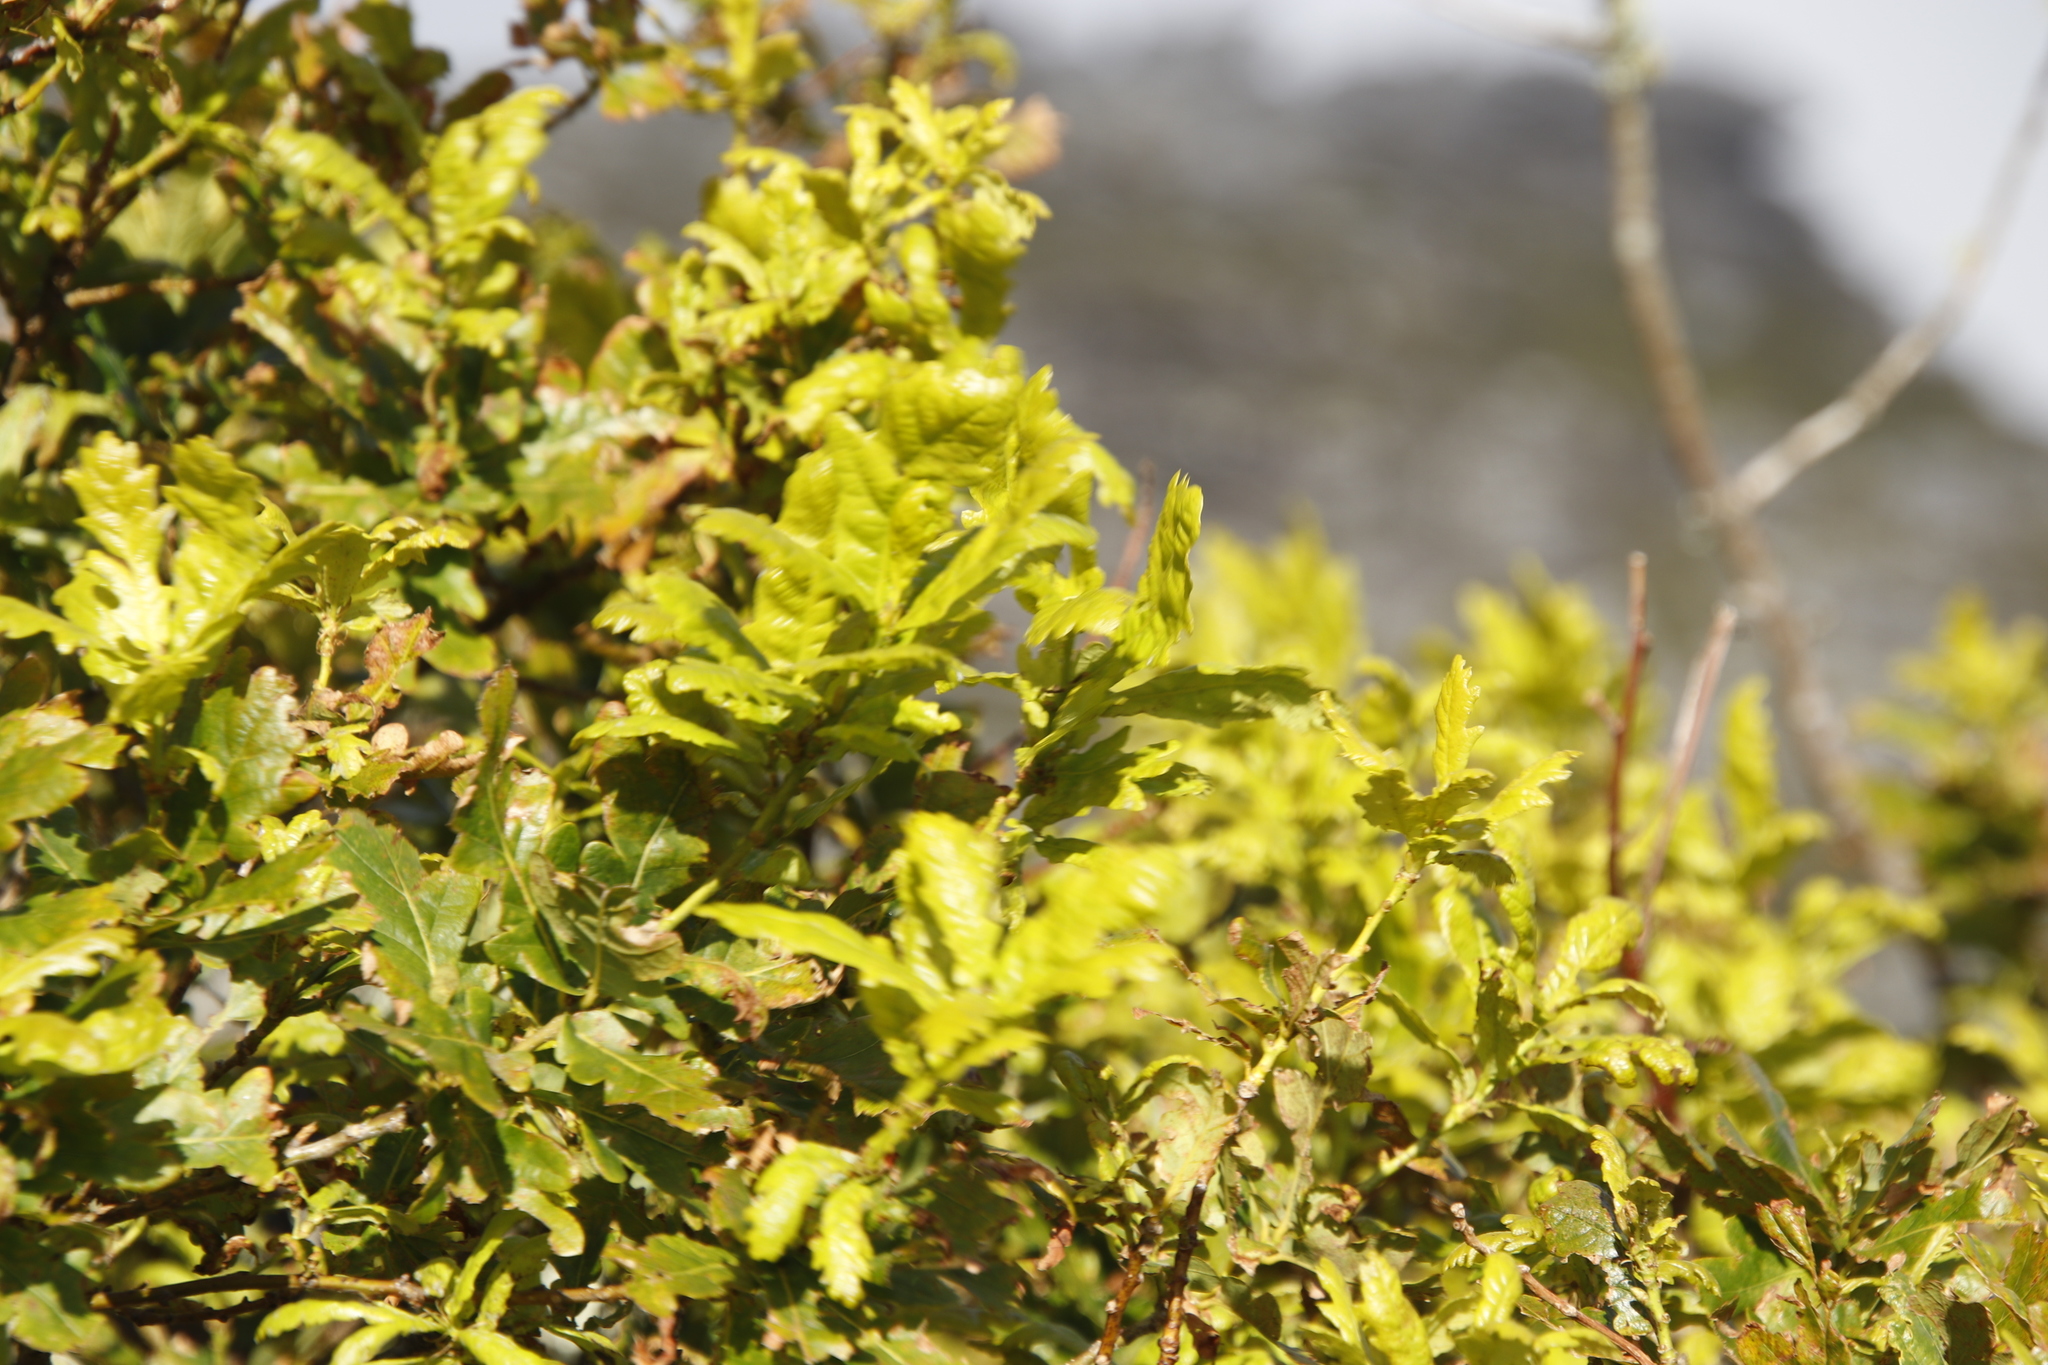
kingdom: Plantae
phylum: Tracheophyta
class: Magnoliopsida
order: Fagales
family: Fagaceae
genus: Quercus
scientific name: Quercus robur
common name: Pedunculate oak
